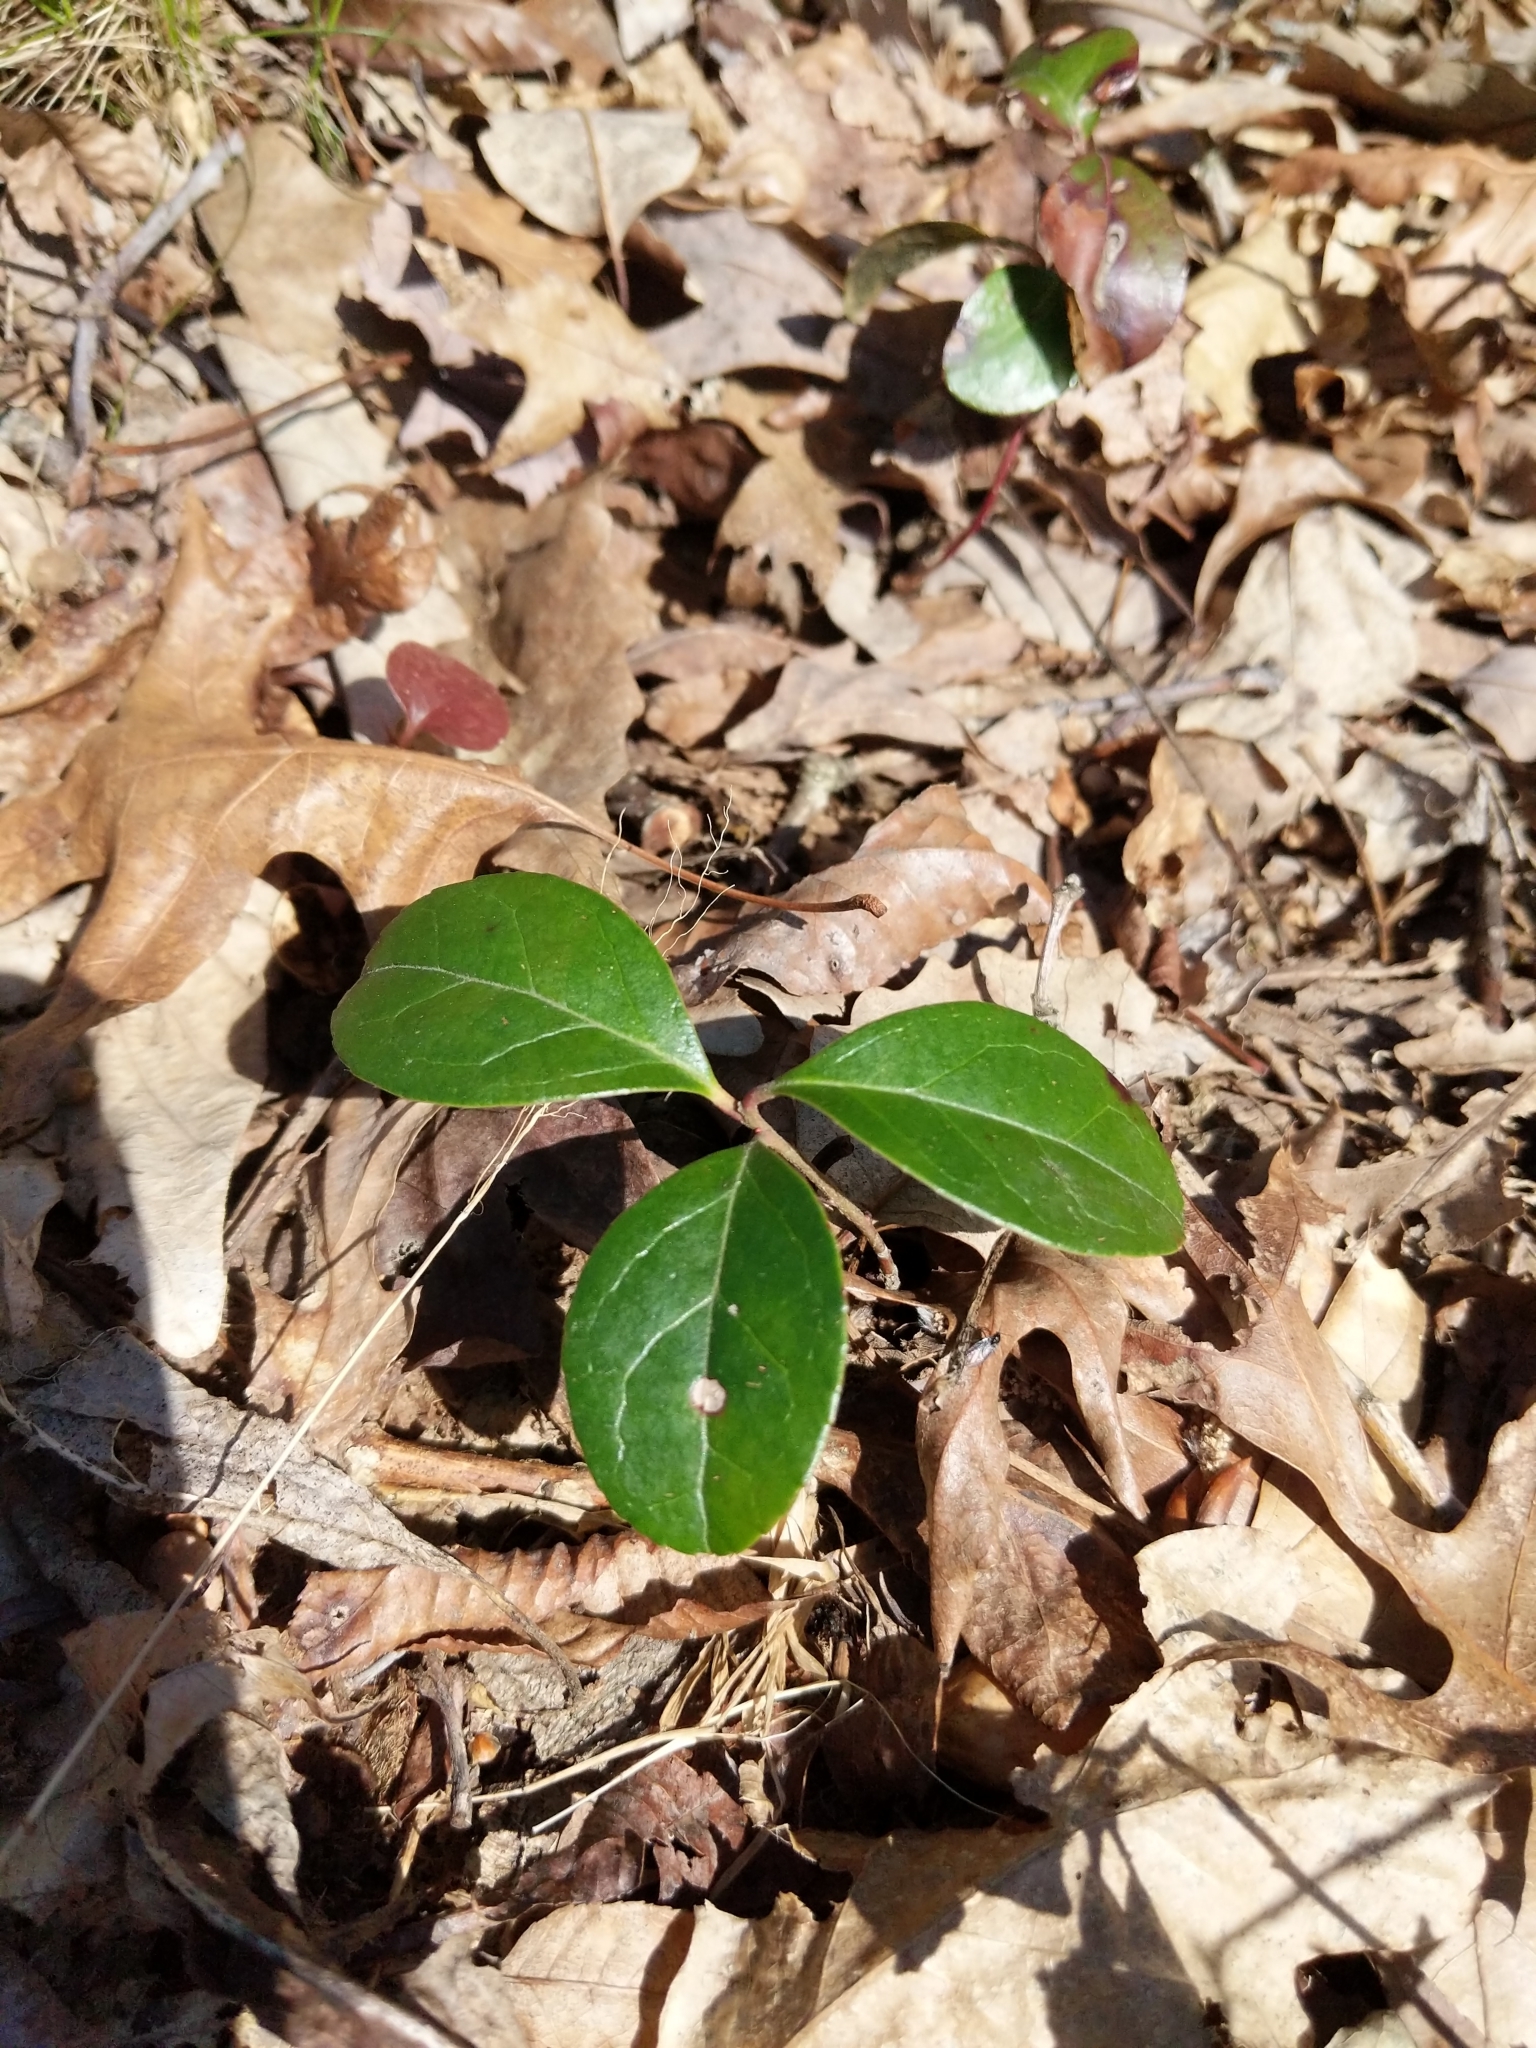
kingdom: Plantae
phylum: Tracheophyta
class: Magnoliopsida
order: Ericales
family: Ericaceae
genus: Gaultheria
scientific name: Gaultheria procumbens
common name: Checkerberry
